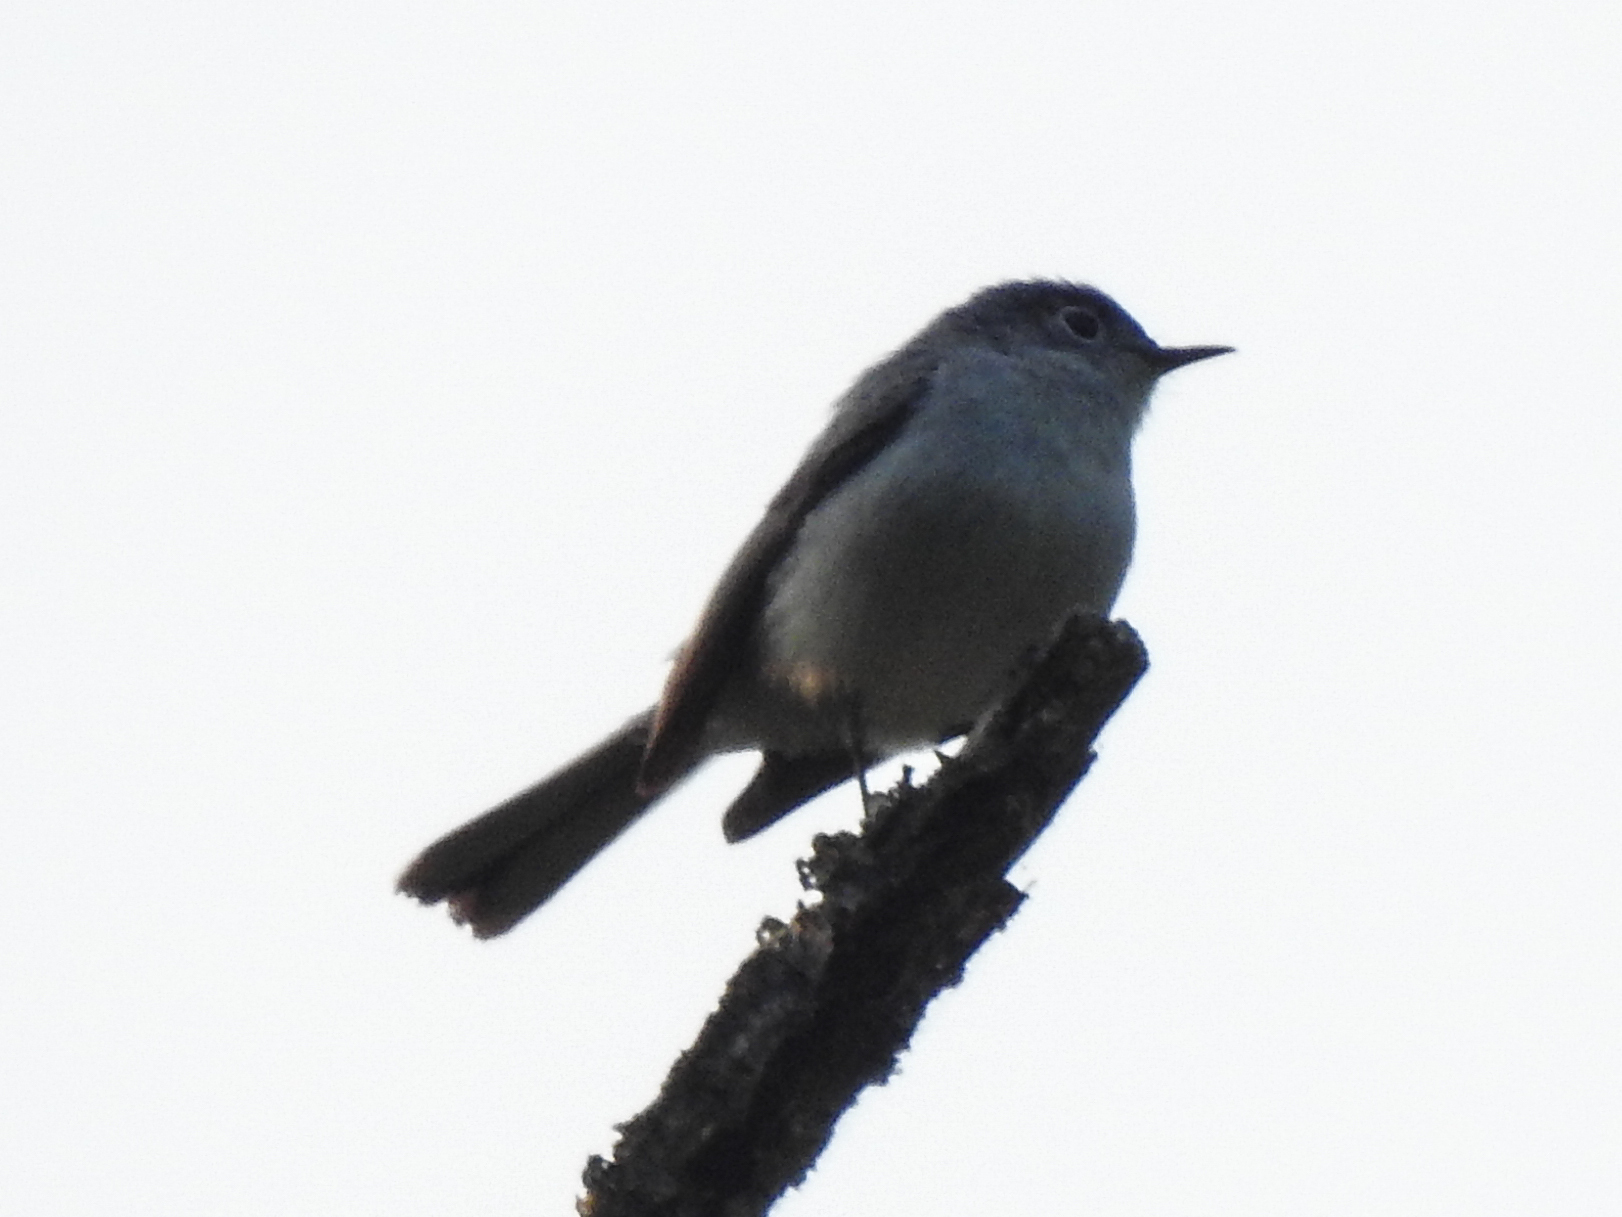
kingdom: Animalia
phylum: Chordata
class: Aves
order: Passeriformes
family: Polioptilidae
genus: Polioptila
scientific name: Polioptila caerulea
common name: Blue-gray gnatcatcher
